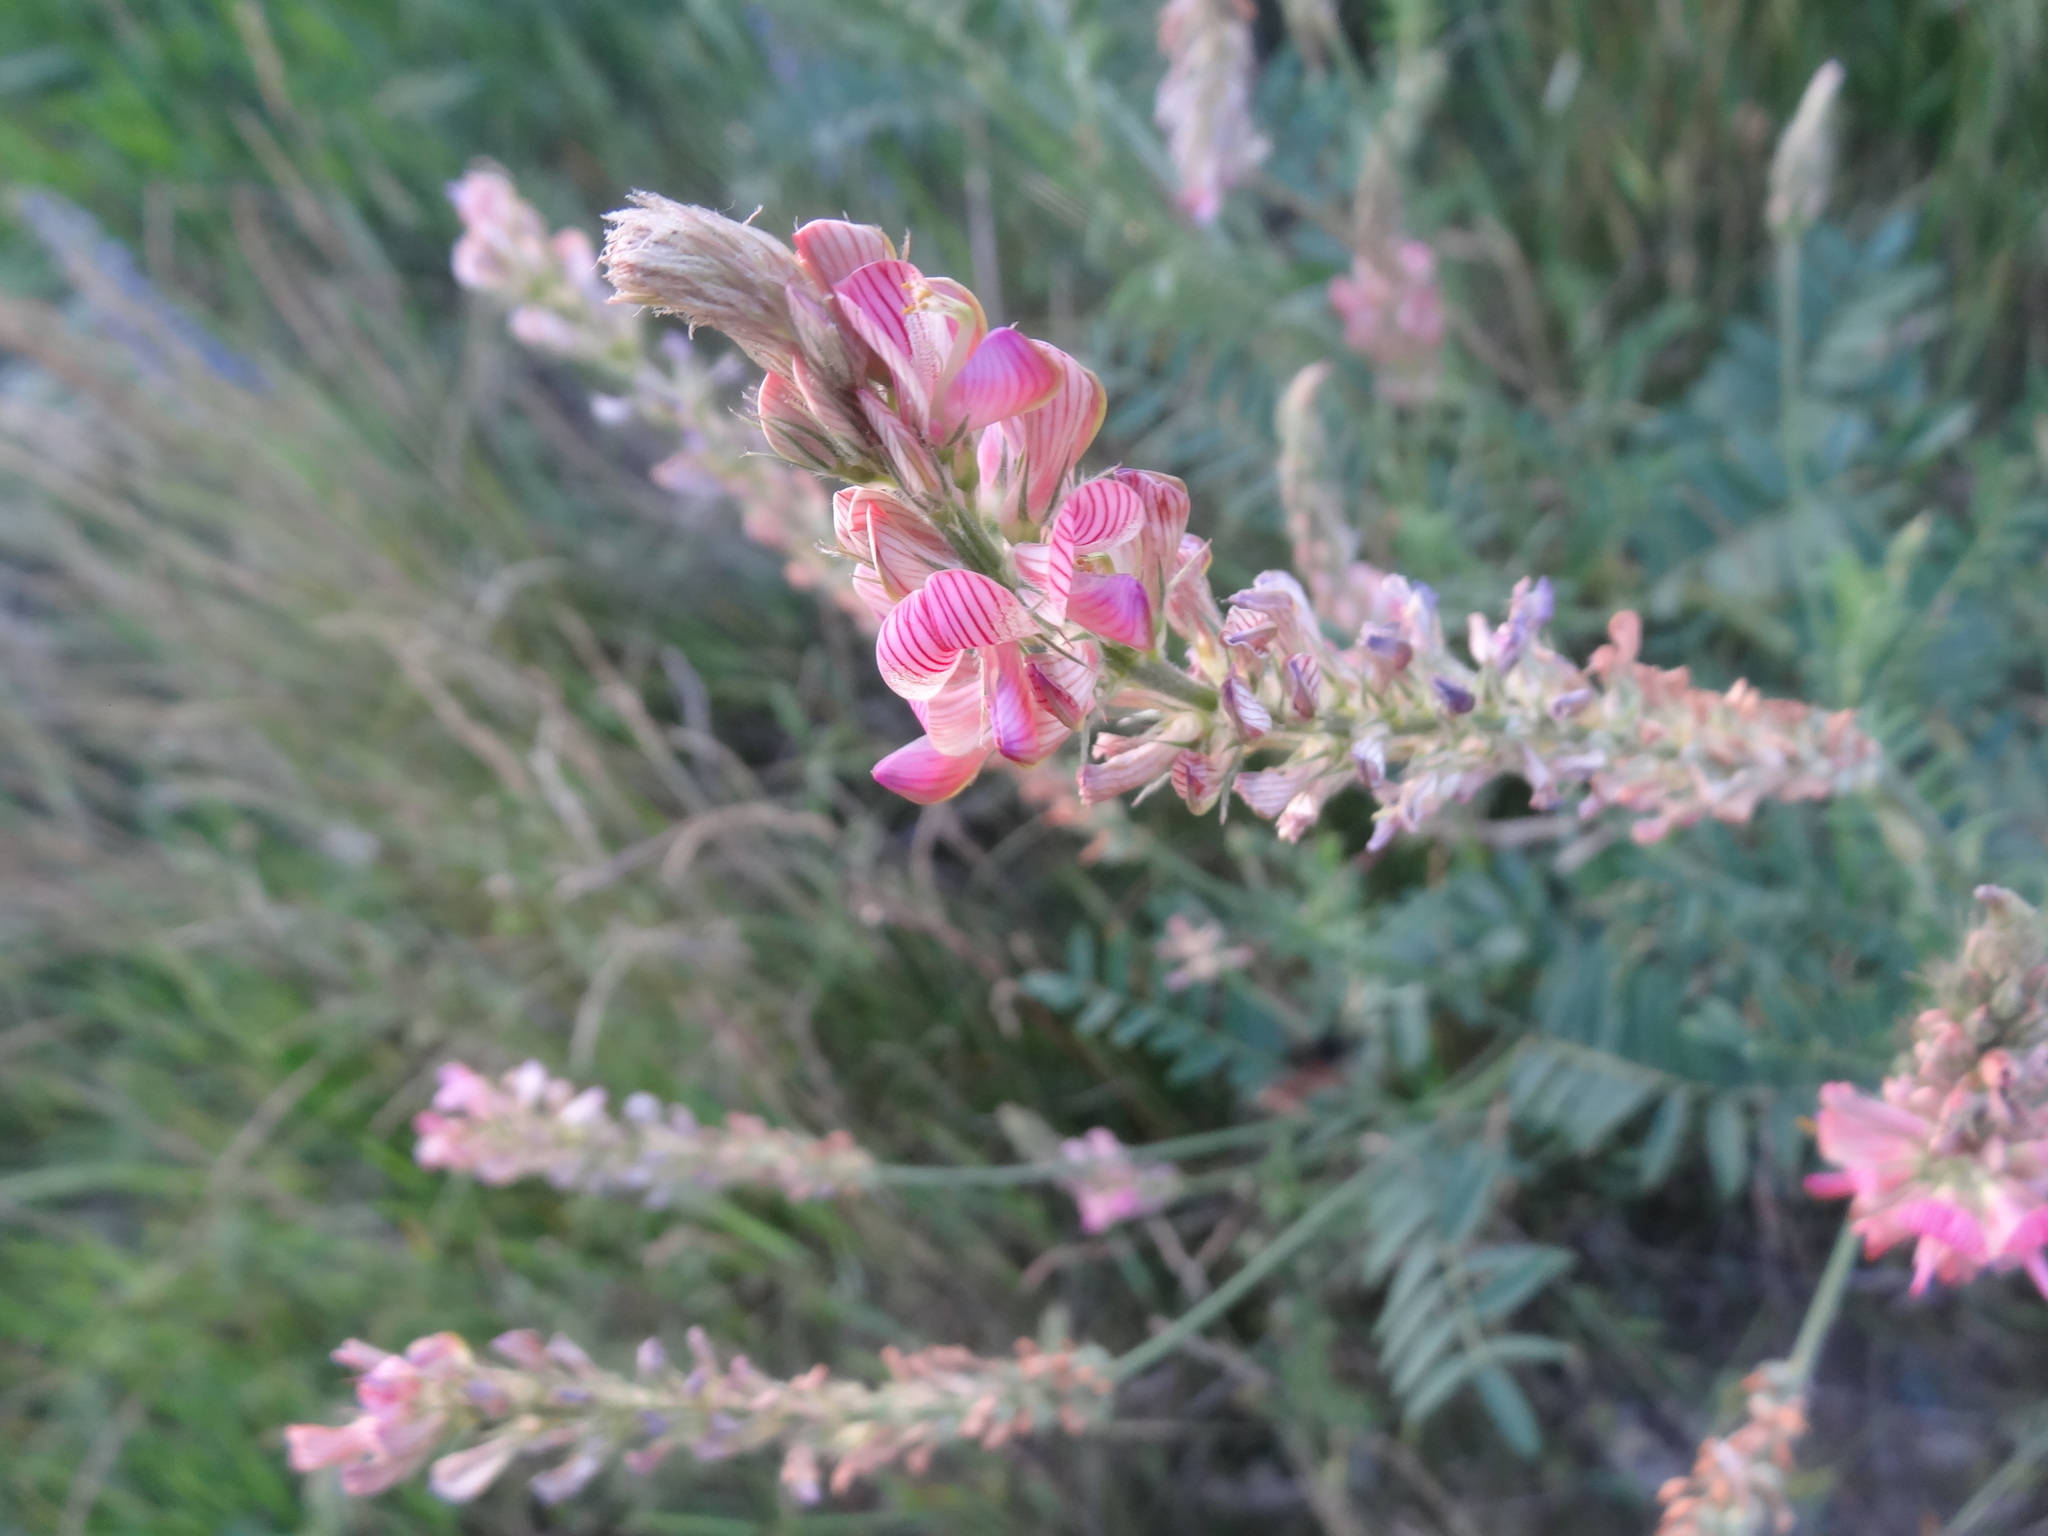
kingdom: Plantae
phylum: Tracheophyta
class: Magnoliopsida
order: Fabales
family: Fabaceae
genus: Onobrychis
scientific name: Onobrychis viciifolia
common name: Sainfoin
